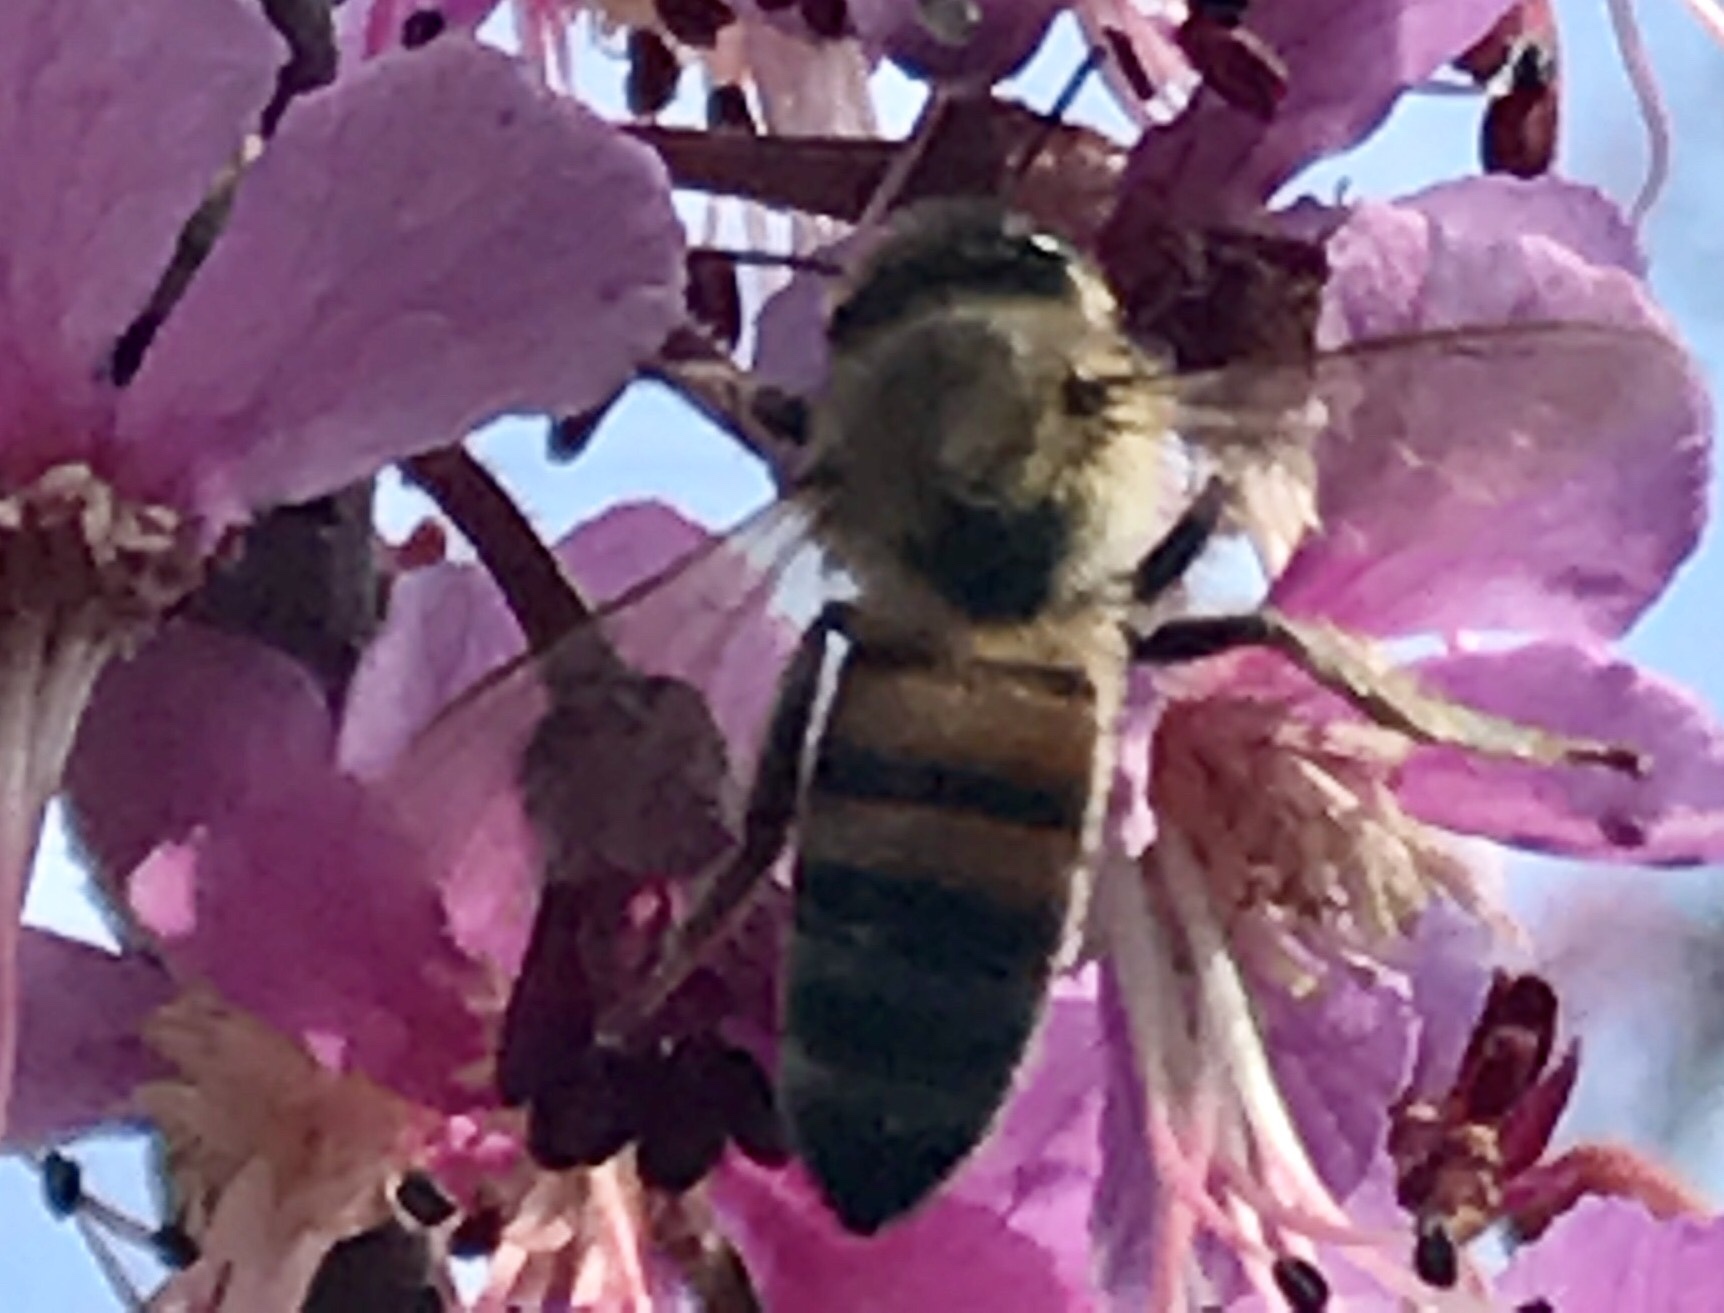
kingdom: Animalia
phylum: Arthropoda
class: Insecta
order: Hymenoptera
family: Apidae
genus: Apis
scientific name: Apis mellifera
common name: Honey bee
